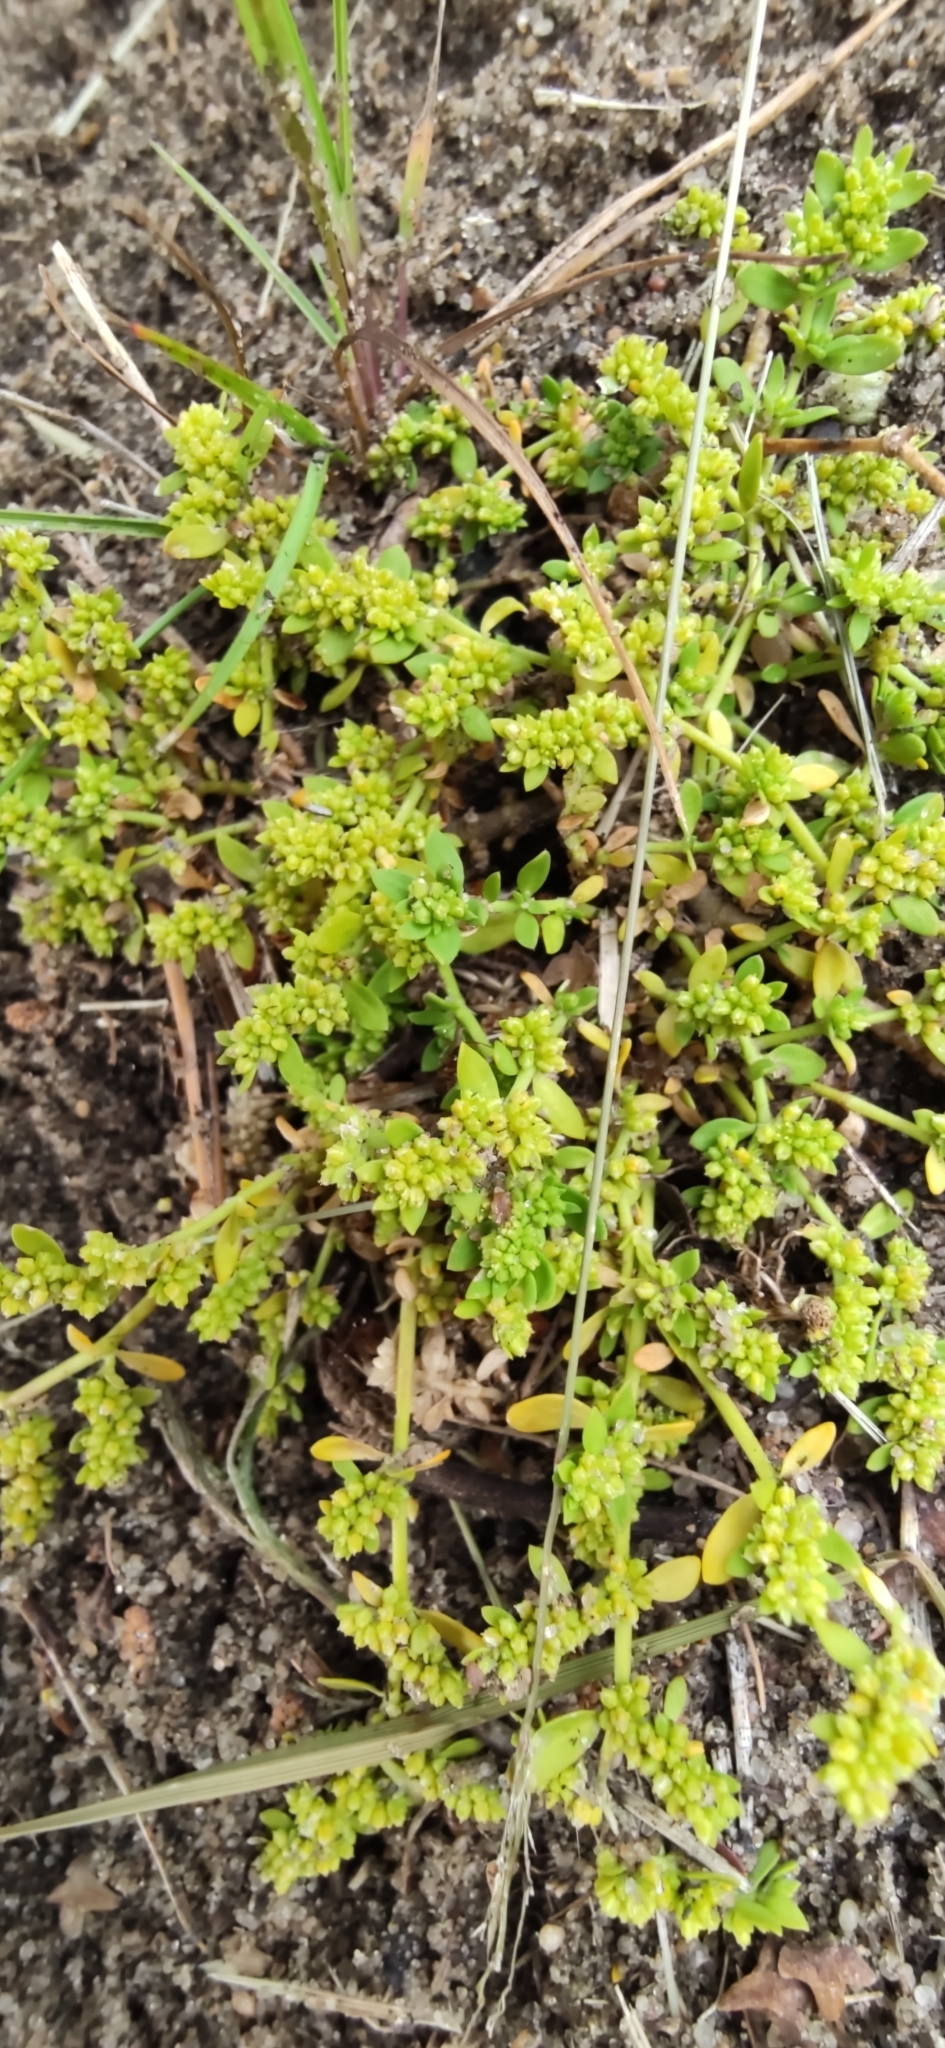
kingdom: Plantae
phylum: Tracheophyta
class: Magnoliopsida
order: Caryophyllales
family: Caryophyllaceae
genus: Herniaria
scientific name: Herniaria glabra
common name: Smooth rupturewort
